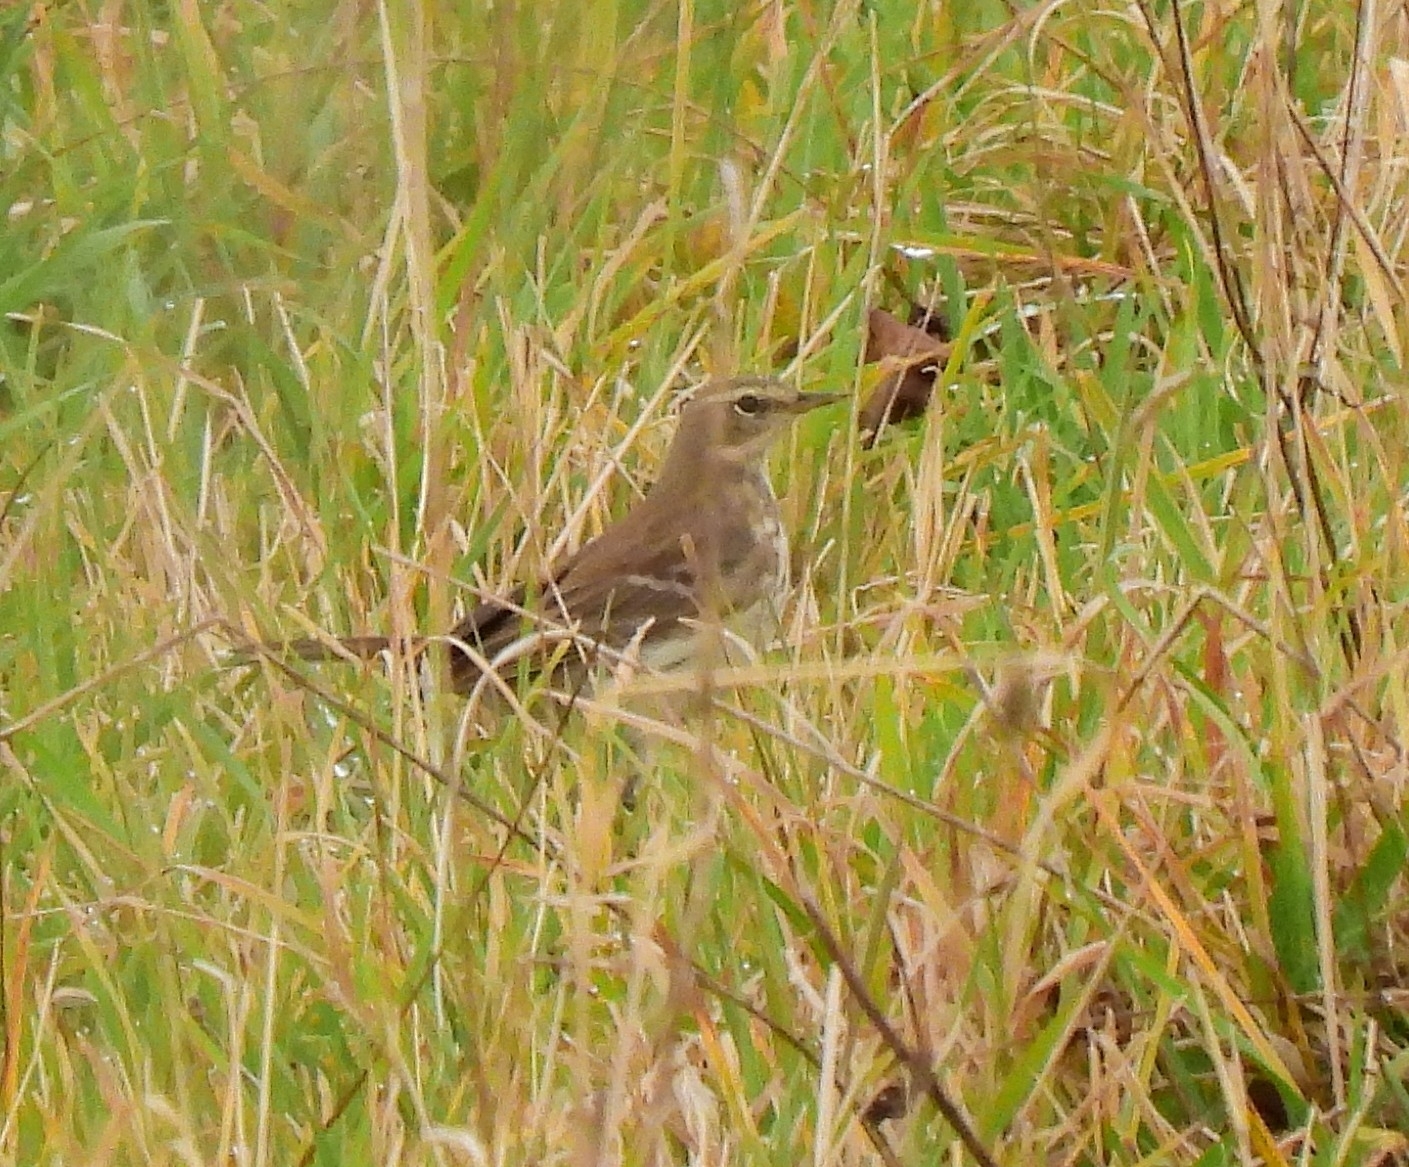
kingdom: Animalia
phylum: Chordata
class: Aves
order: Passeriformes
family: Motacillidae
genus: Anthus
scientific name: Anthus spinoletta
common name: Water pipit
